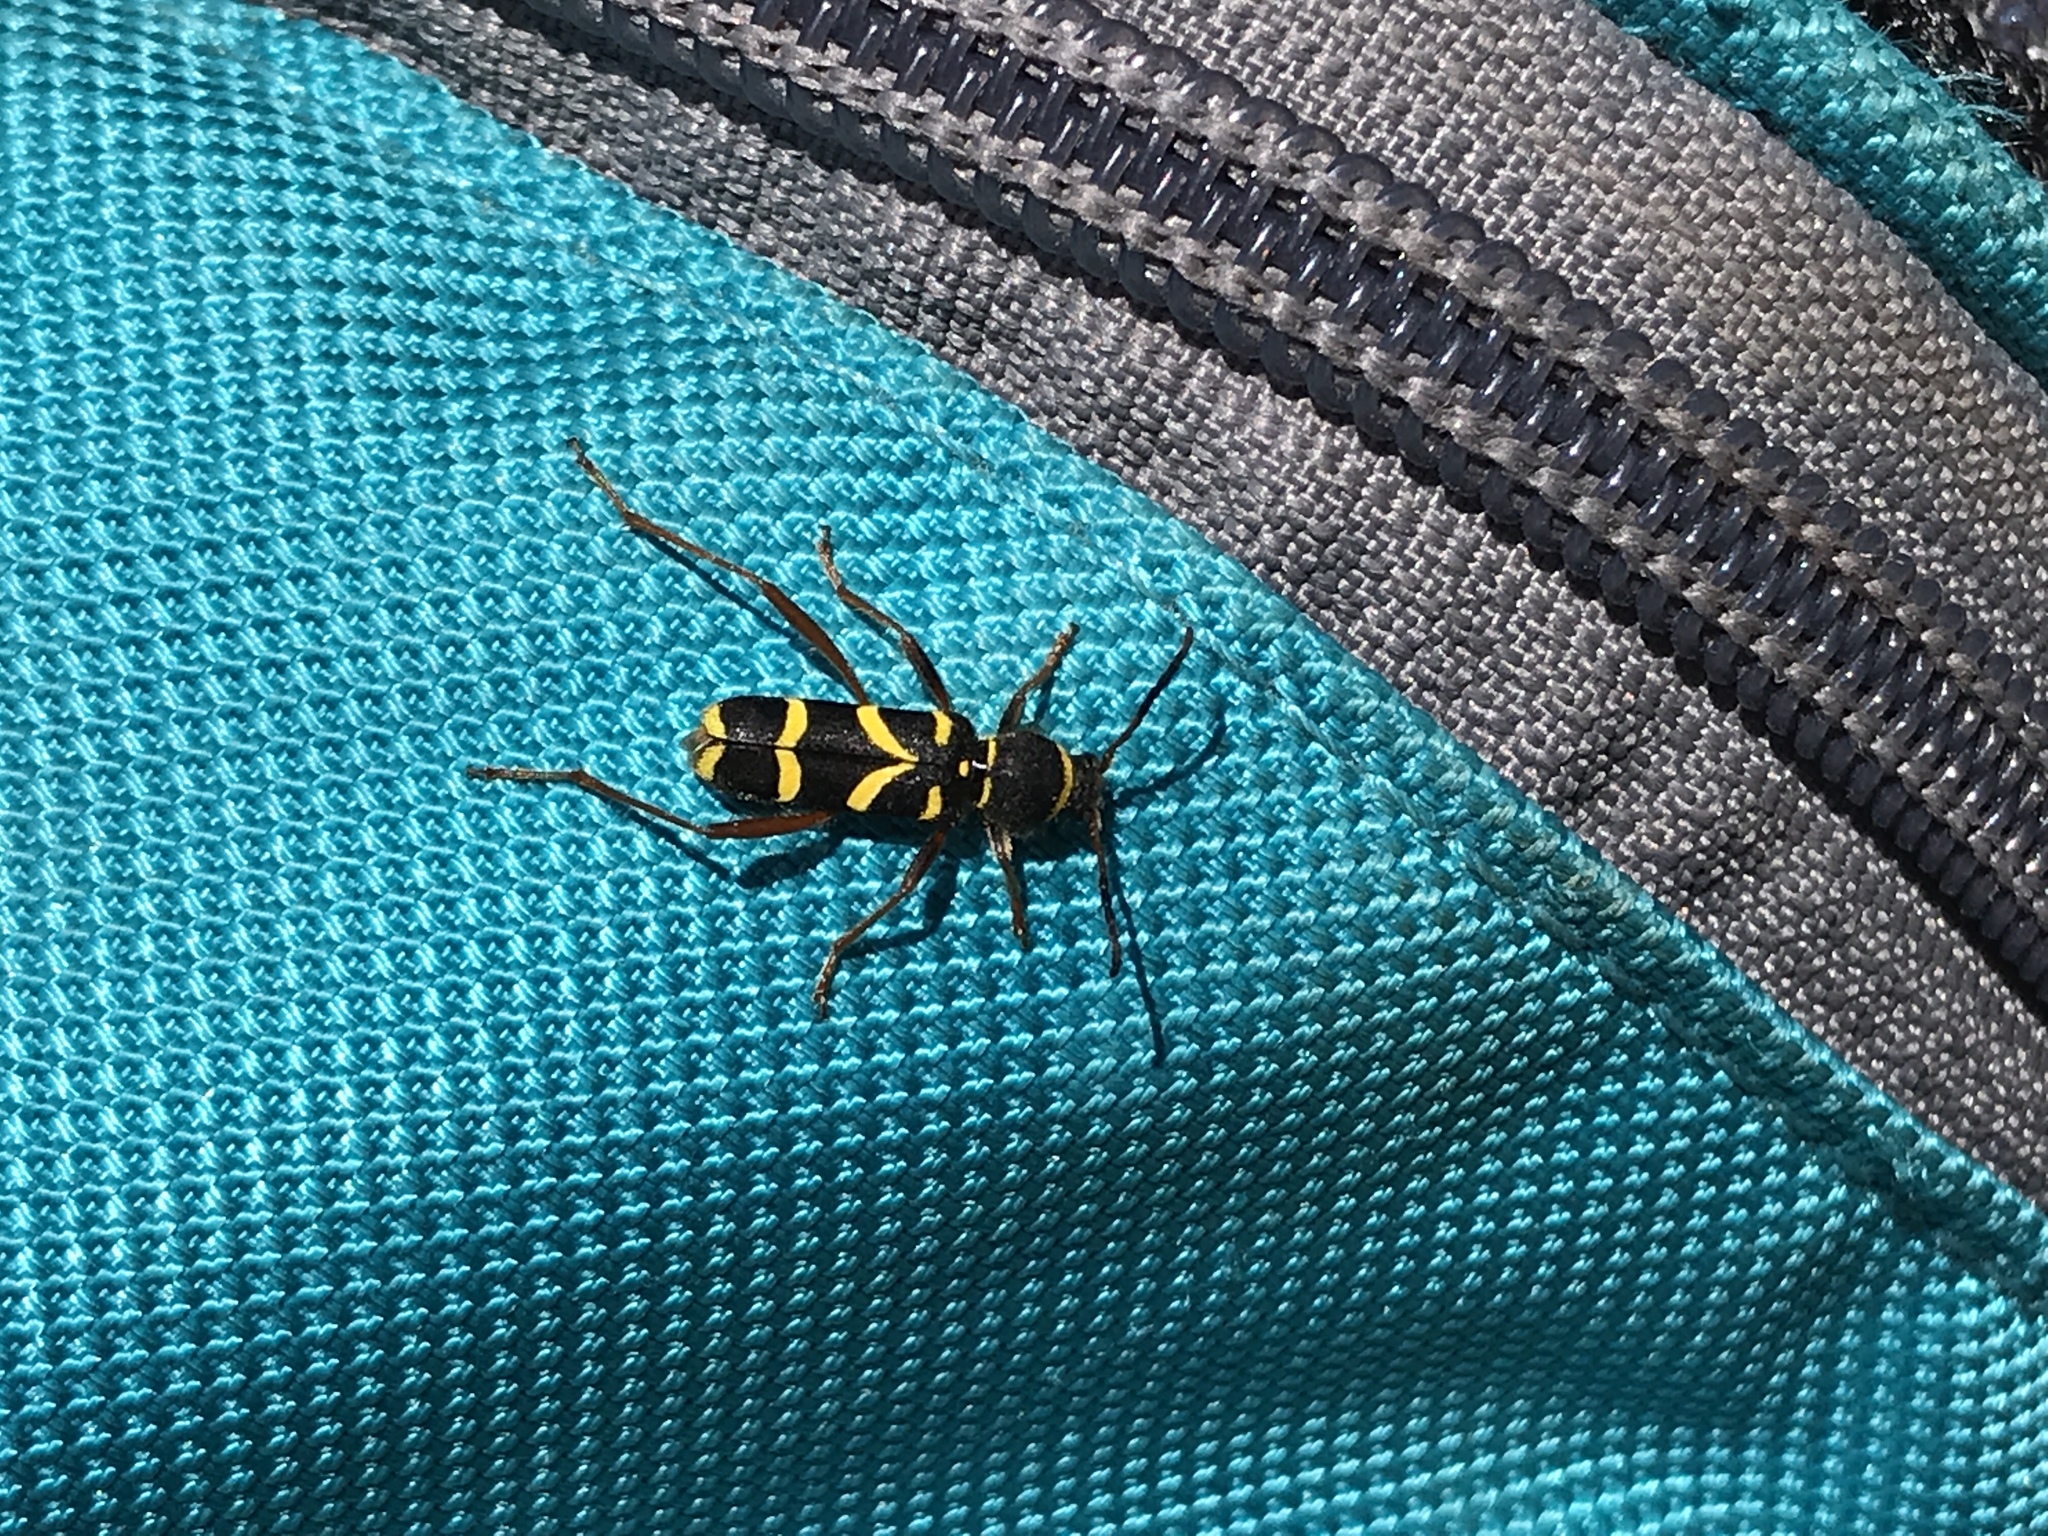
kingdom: Animalia
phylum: Arthropoda
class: Insecta
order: Coleoptera
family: Cerambycidae
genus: Clytus
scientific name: Clytus arietis
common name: Wasp beetle
